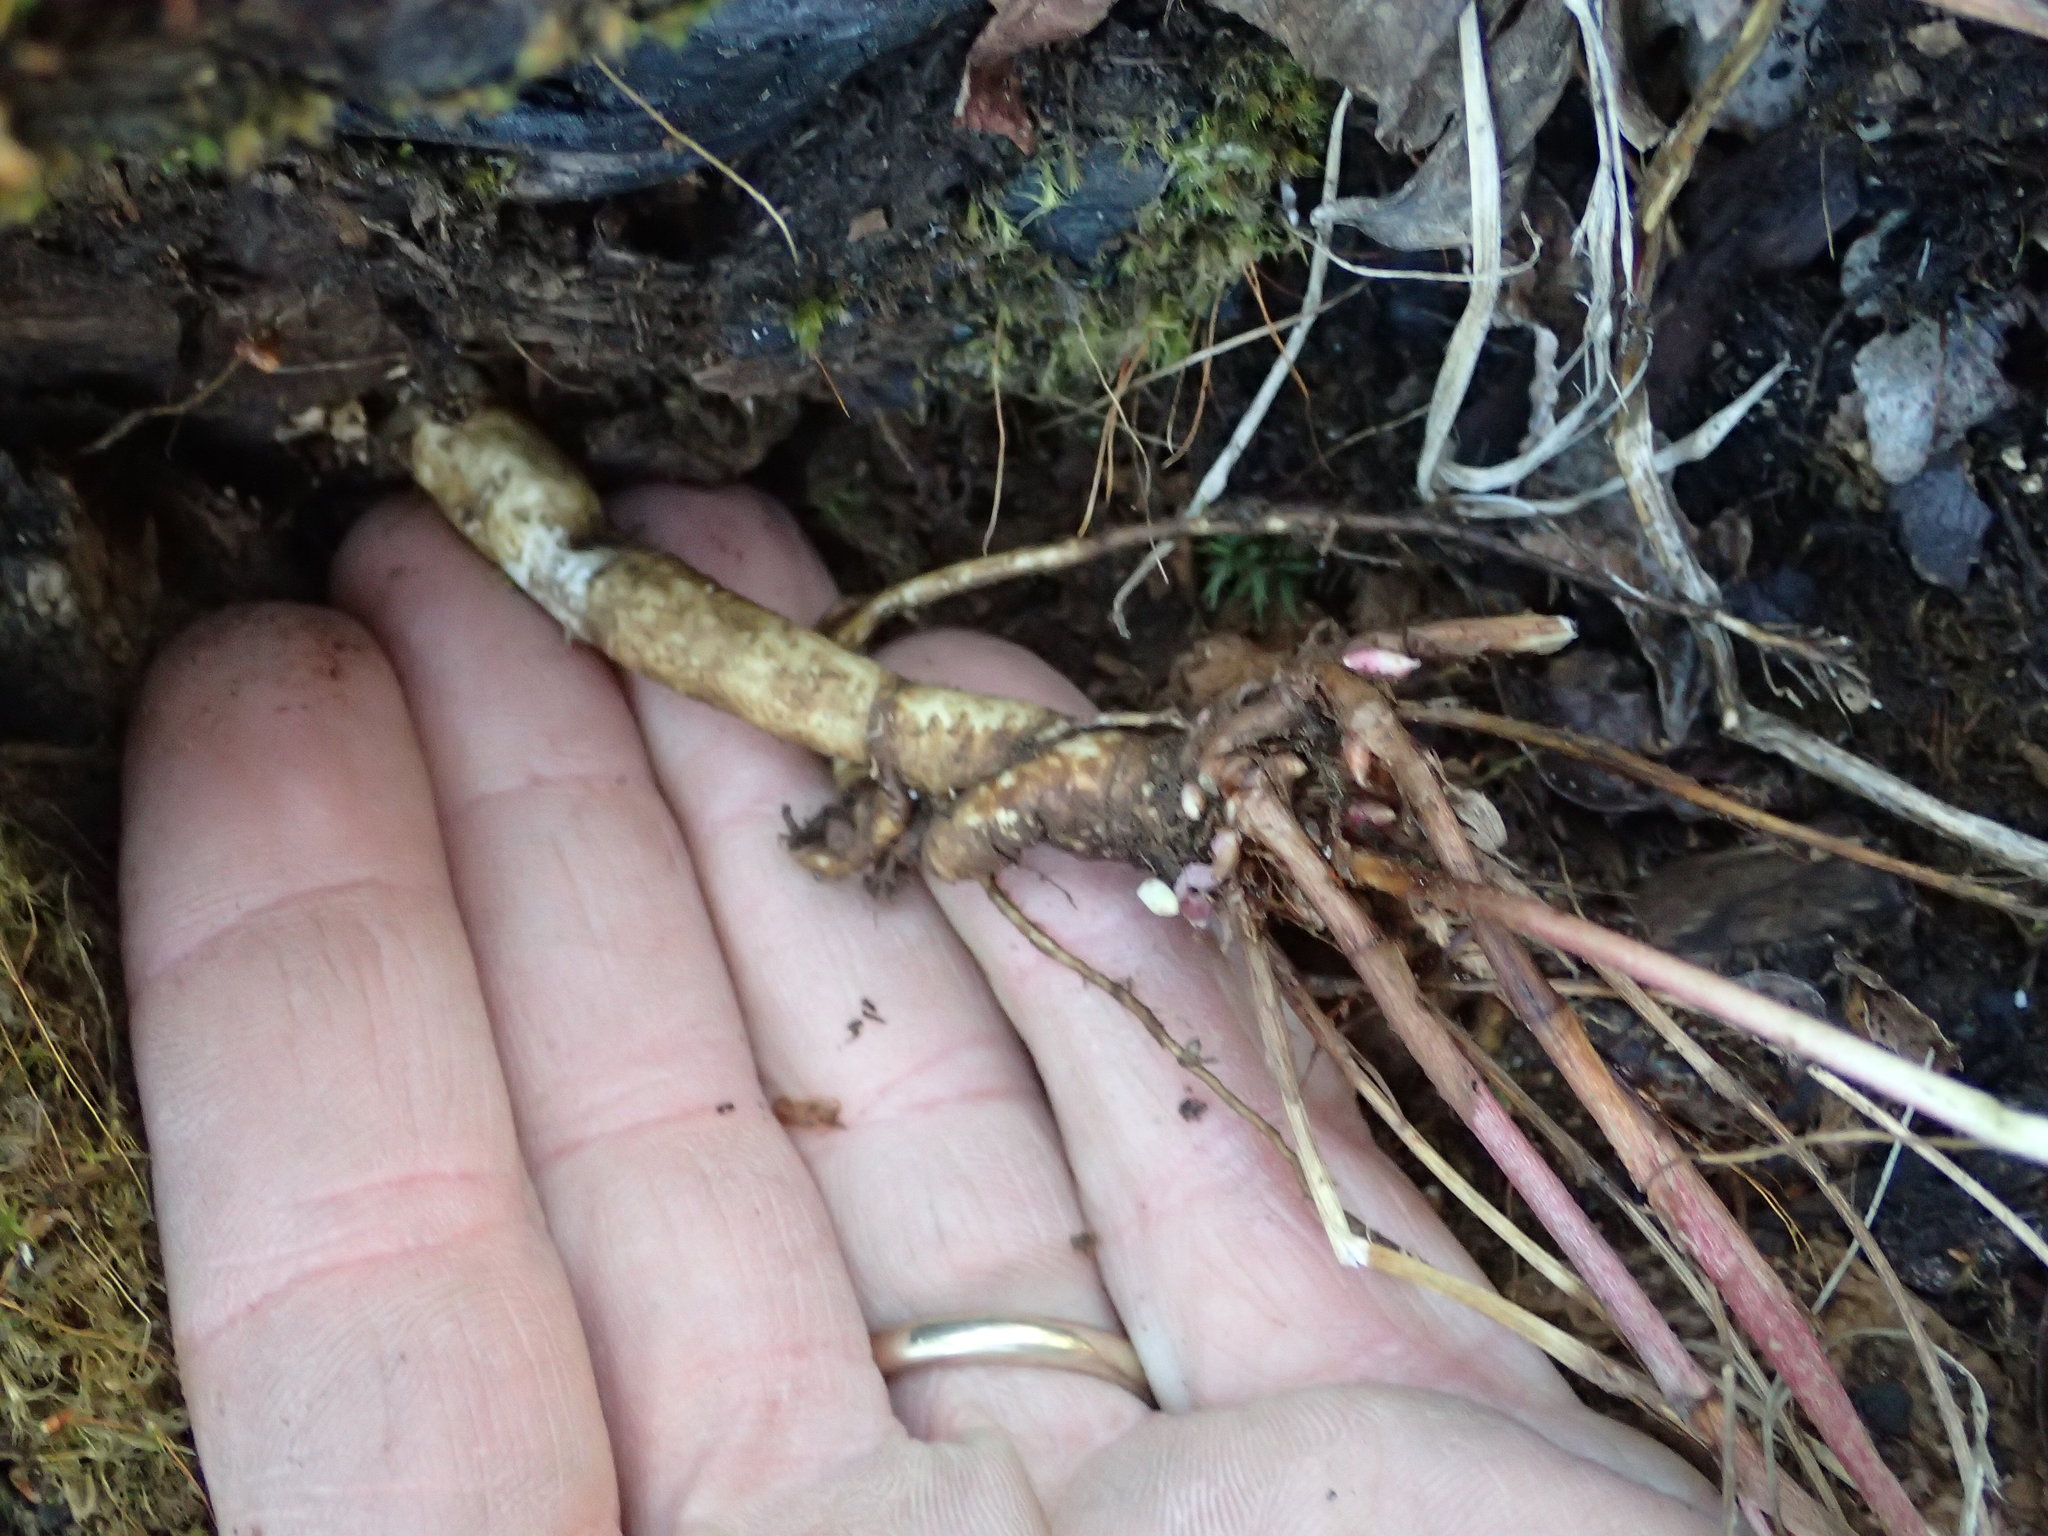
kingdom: Plantae
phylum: Tracheophyta
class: Magnoliopsida
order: Fabales
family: Fabaceae
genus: Hedysarum
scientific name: Hedysarum alpinum
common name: Alpine sweet-vetch
